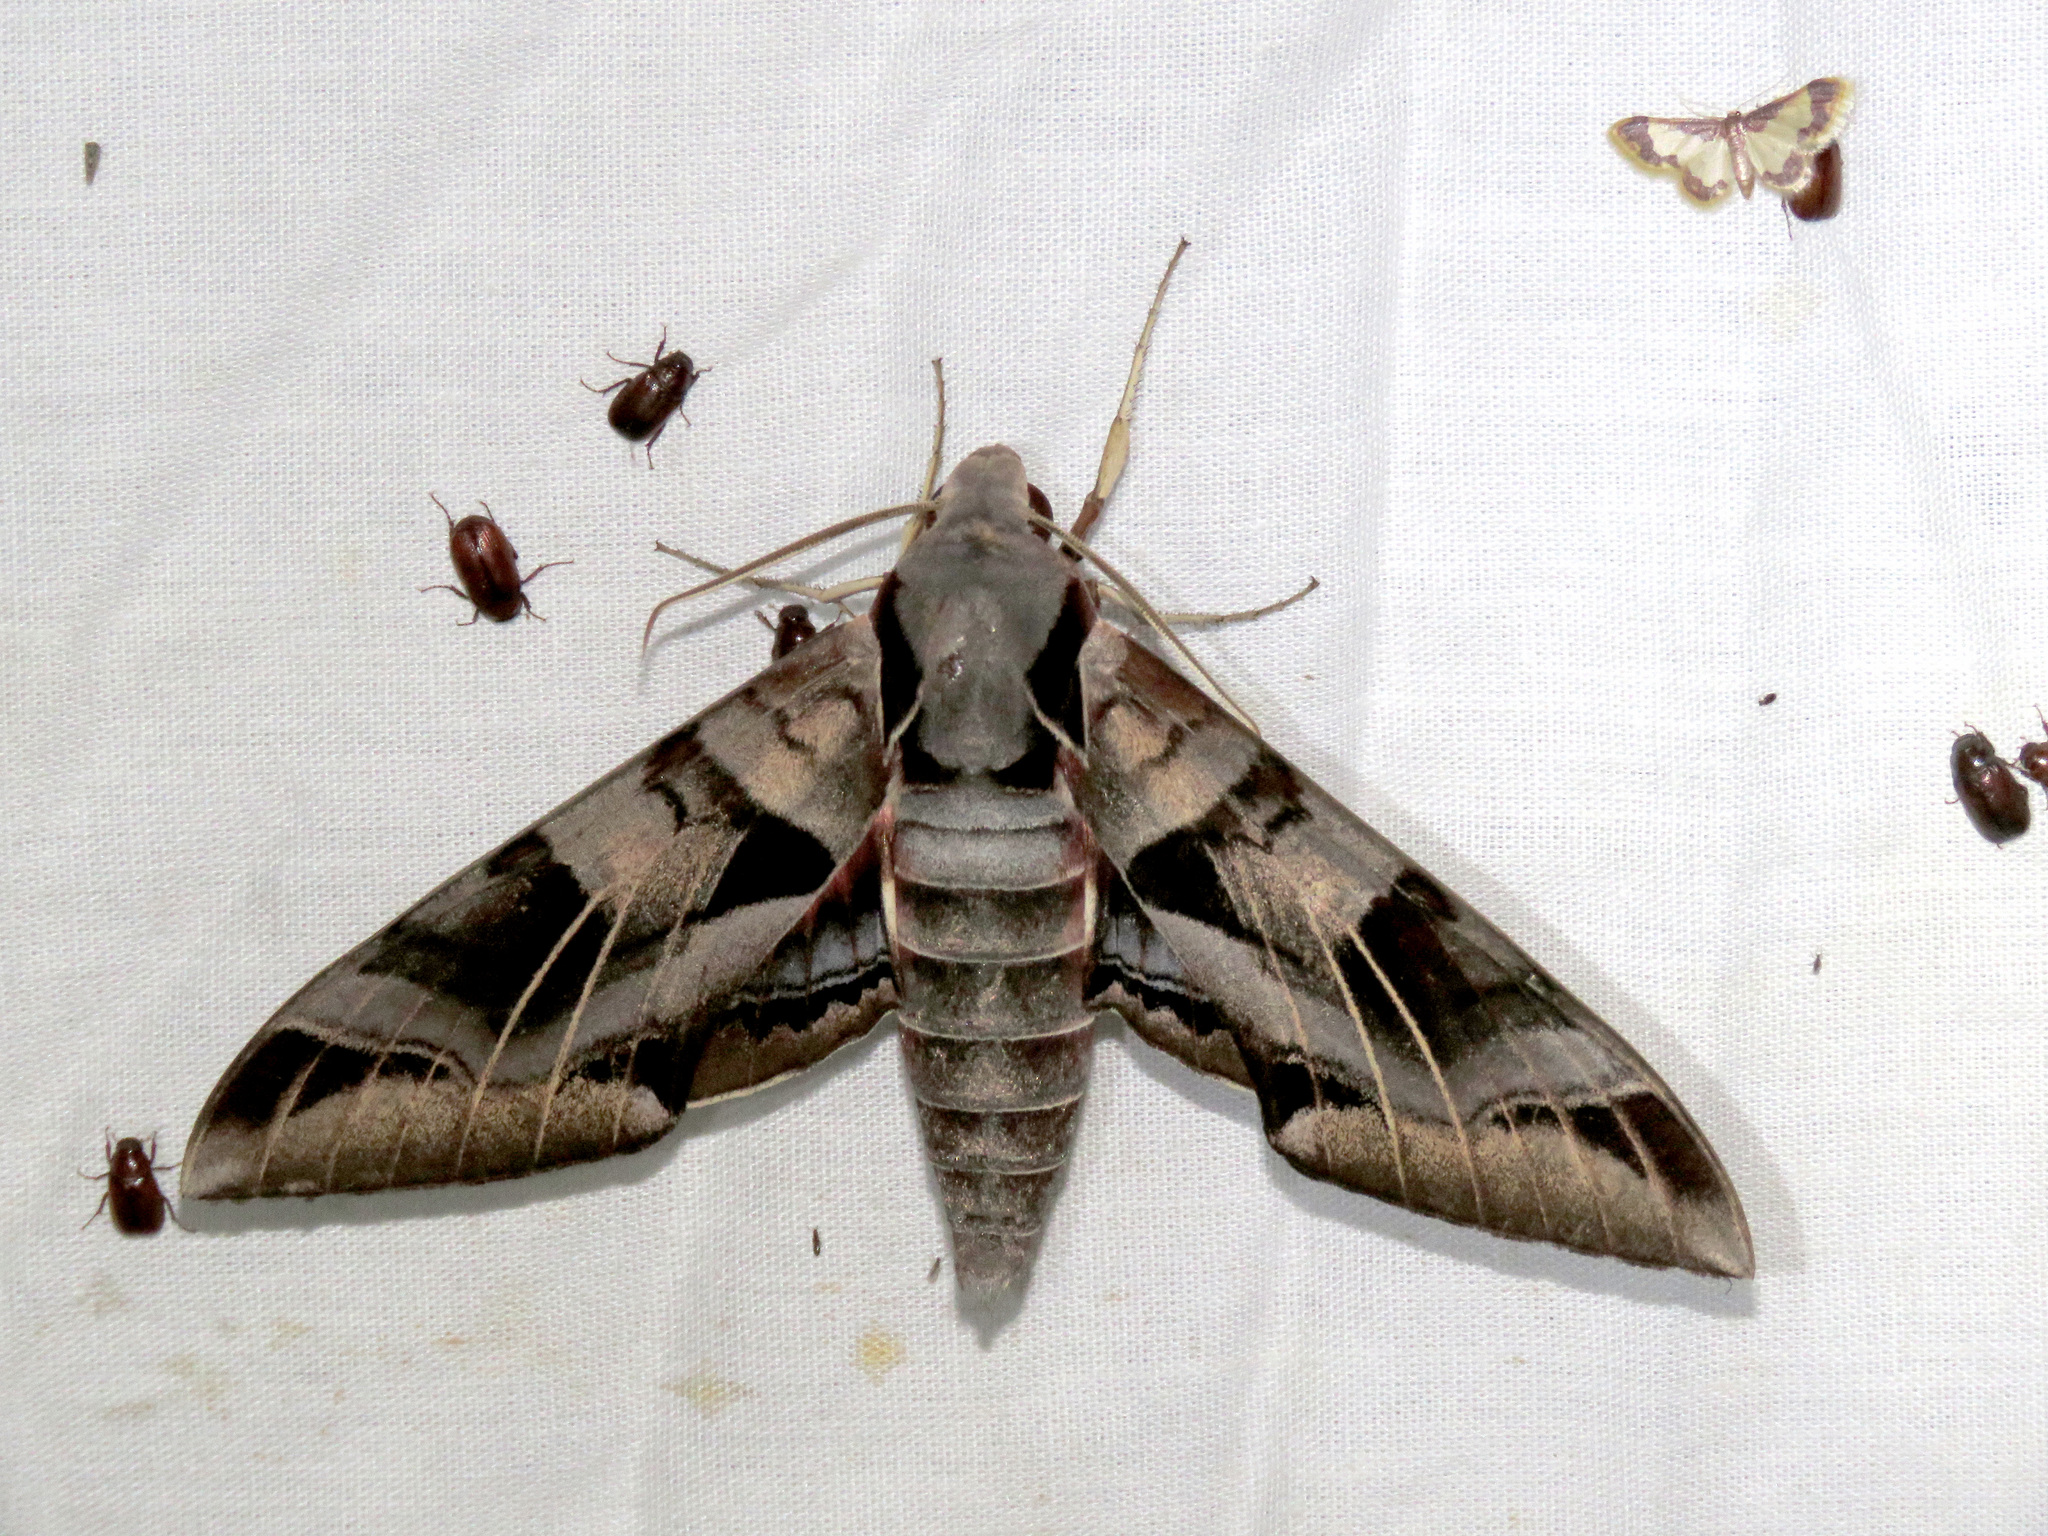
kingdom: Animalia
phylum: Arthropoda
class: Insecta
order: Lepidoptera
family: Sphingidae
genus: Eumorpha
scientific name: Eumorpha typhon
